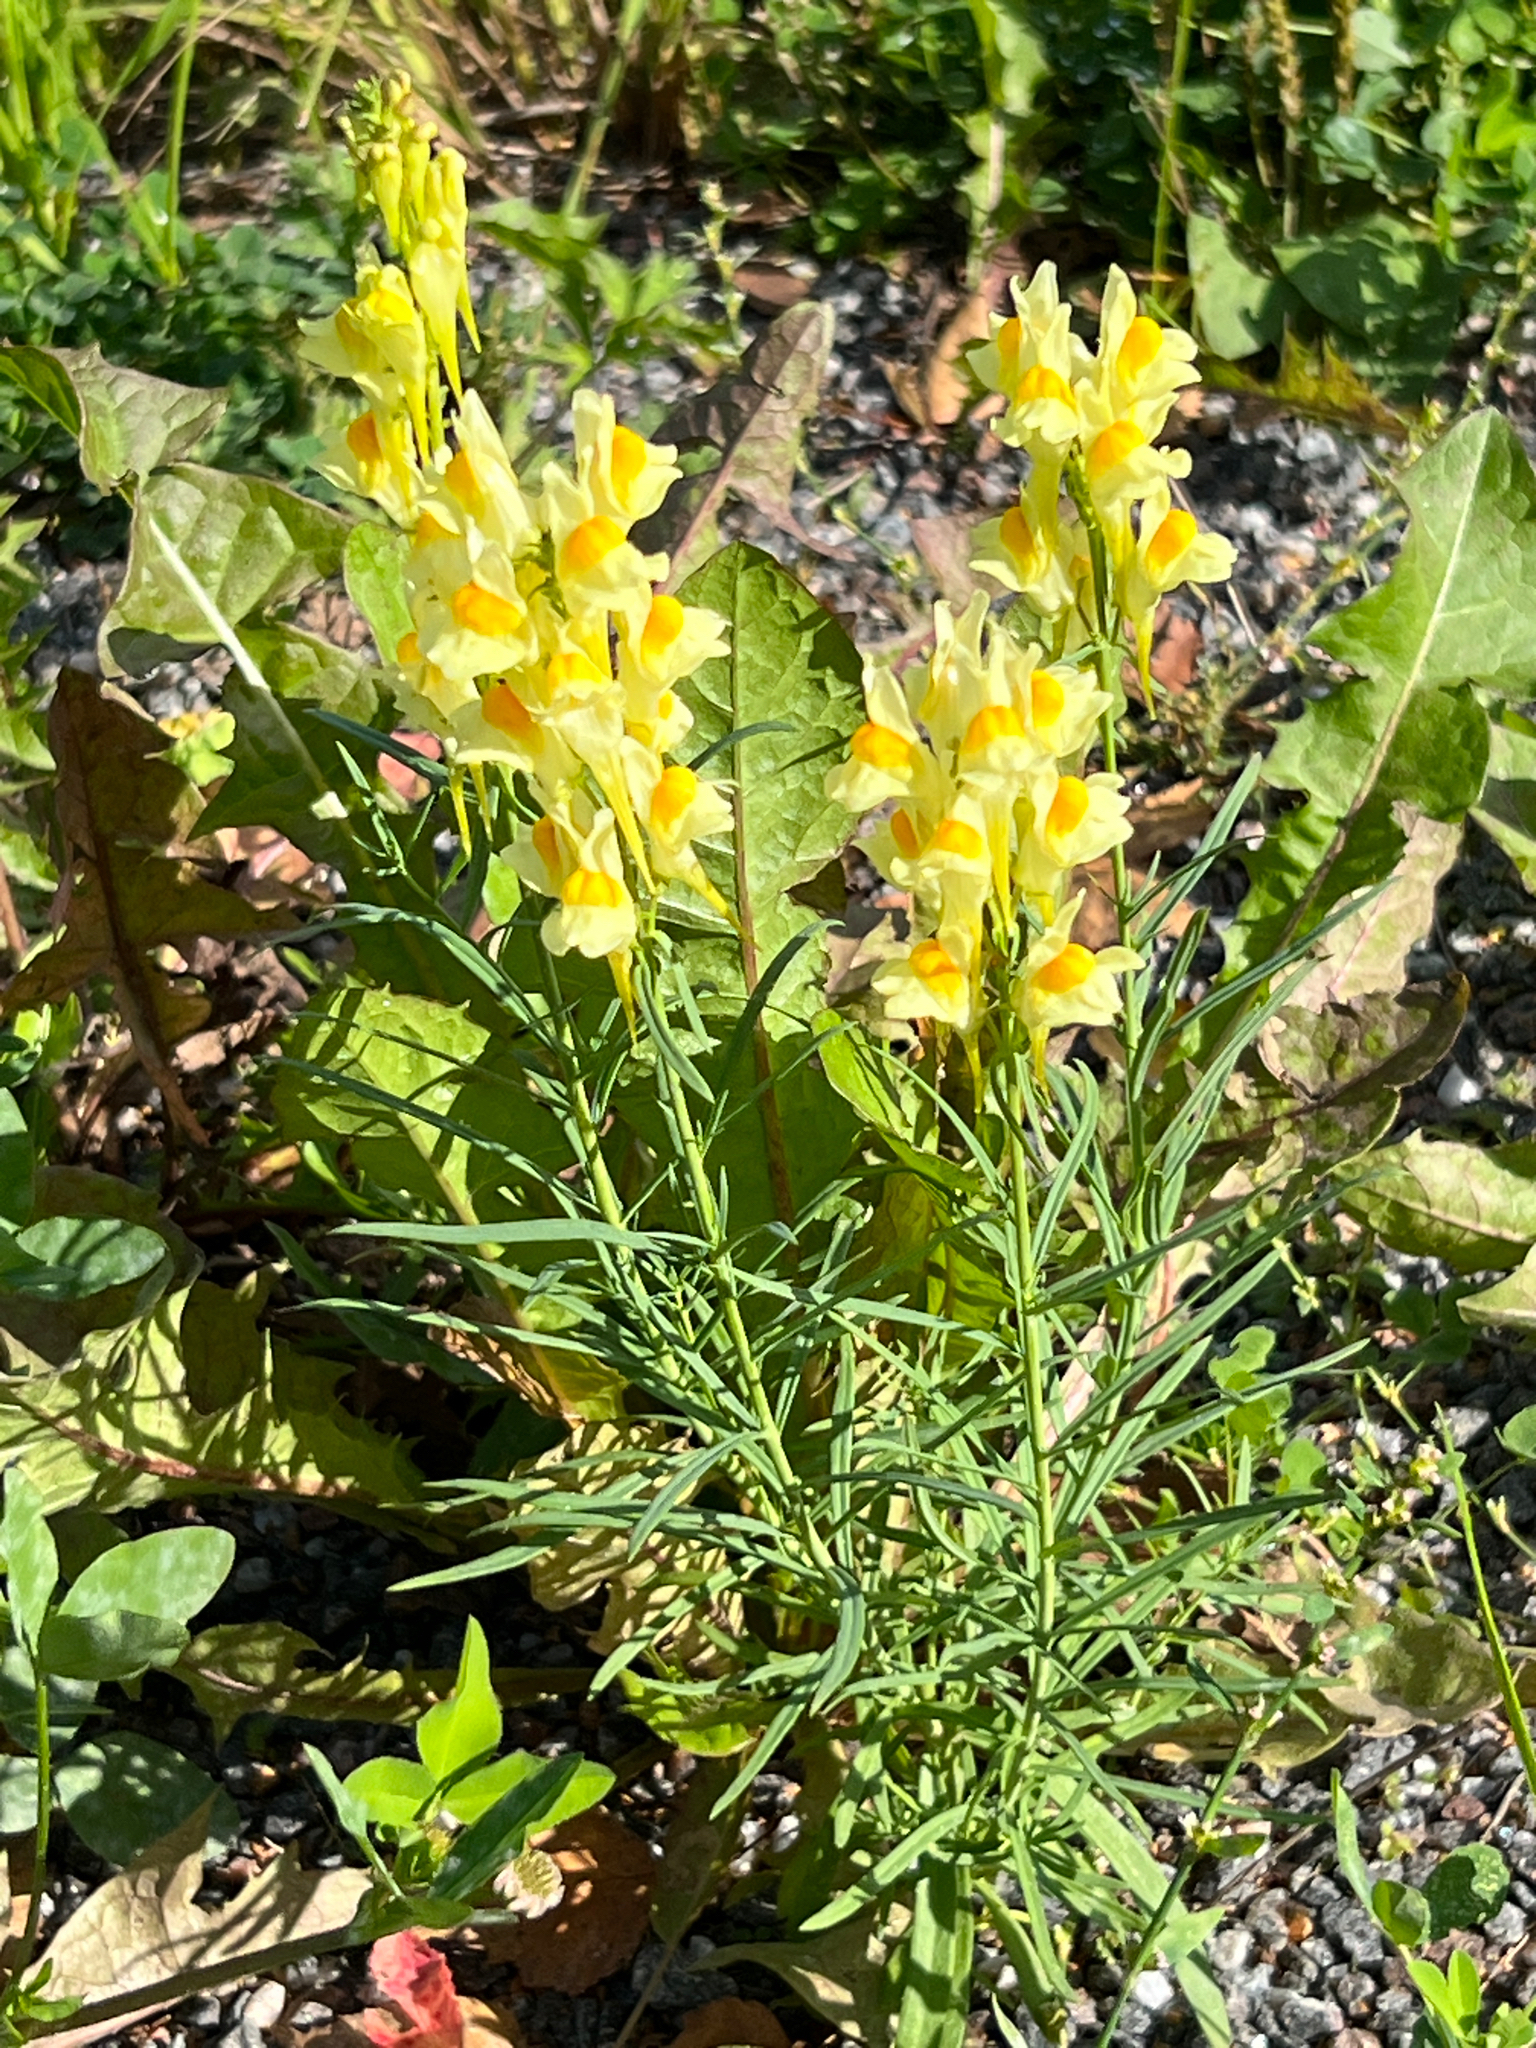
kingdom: Plantae
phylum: Tracheophyta
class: Magnoliopsida
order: Lamiales
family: Plantaginaceae
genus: Linaria
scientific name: Linaria vulgaris
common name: Butter and eggs
